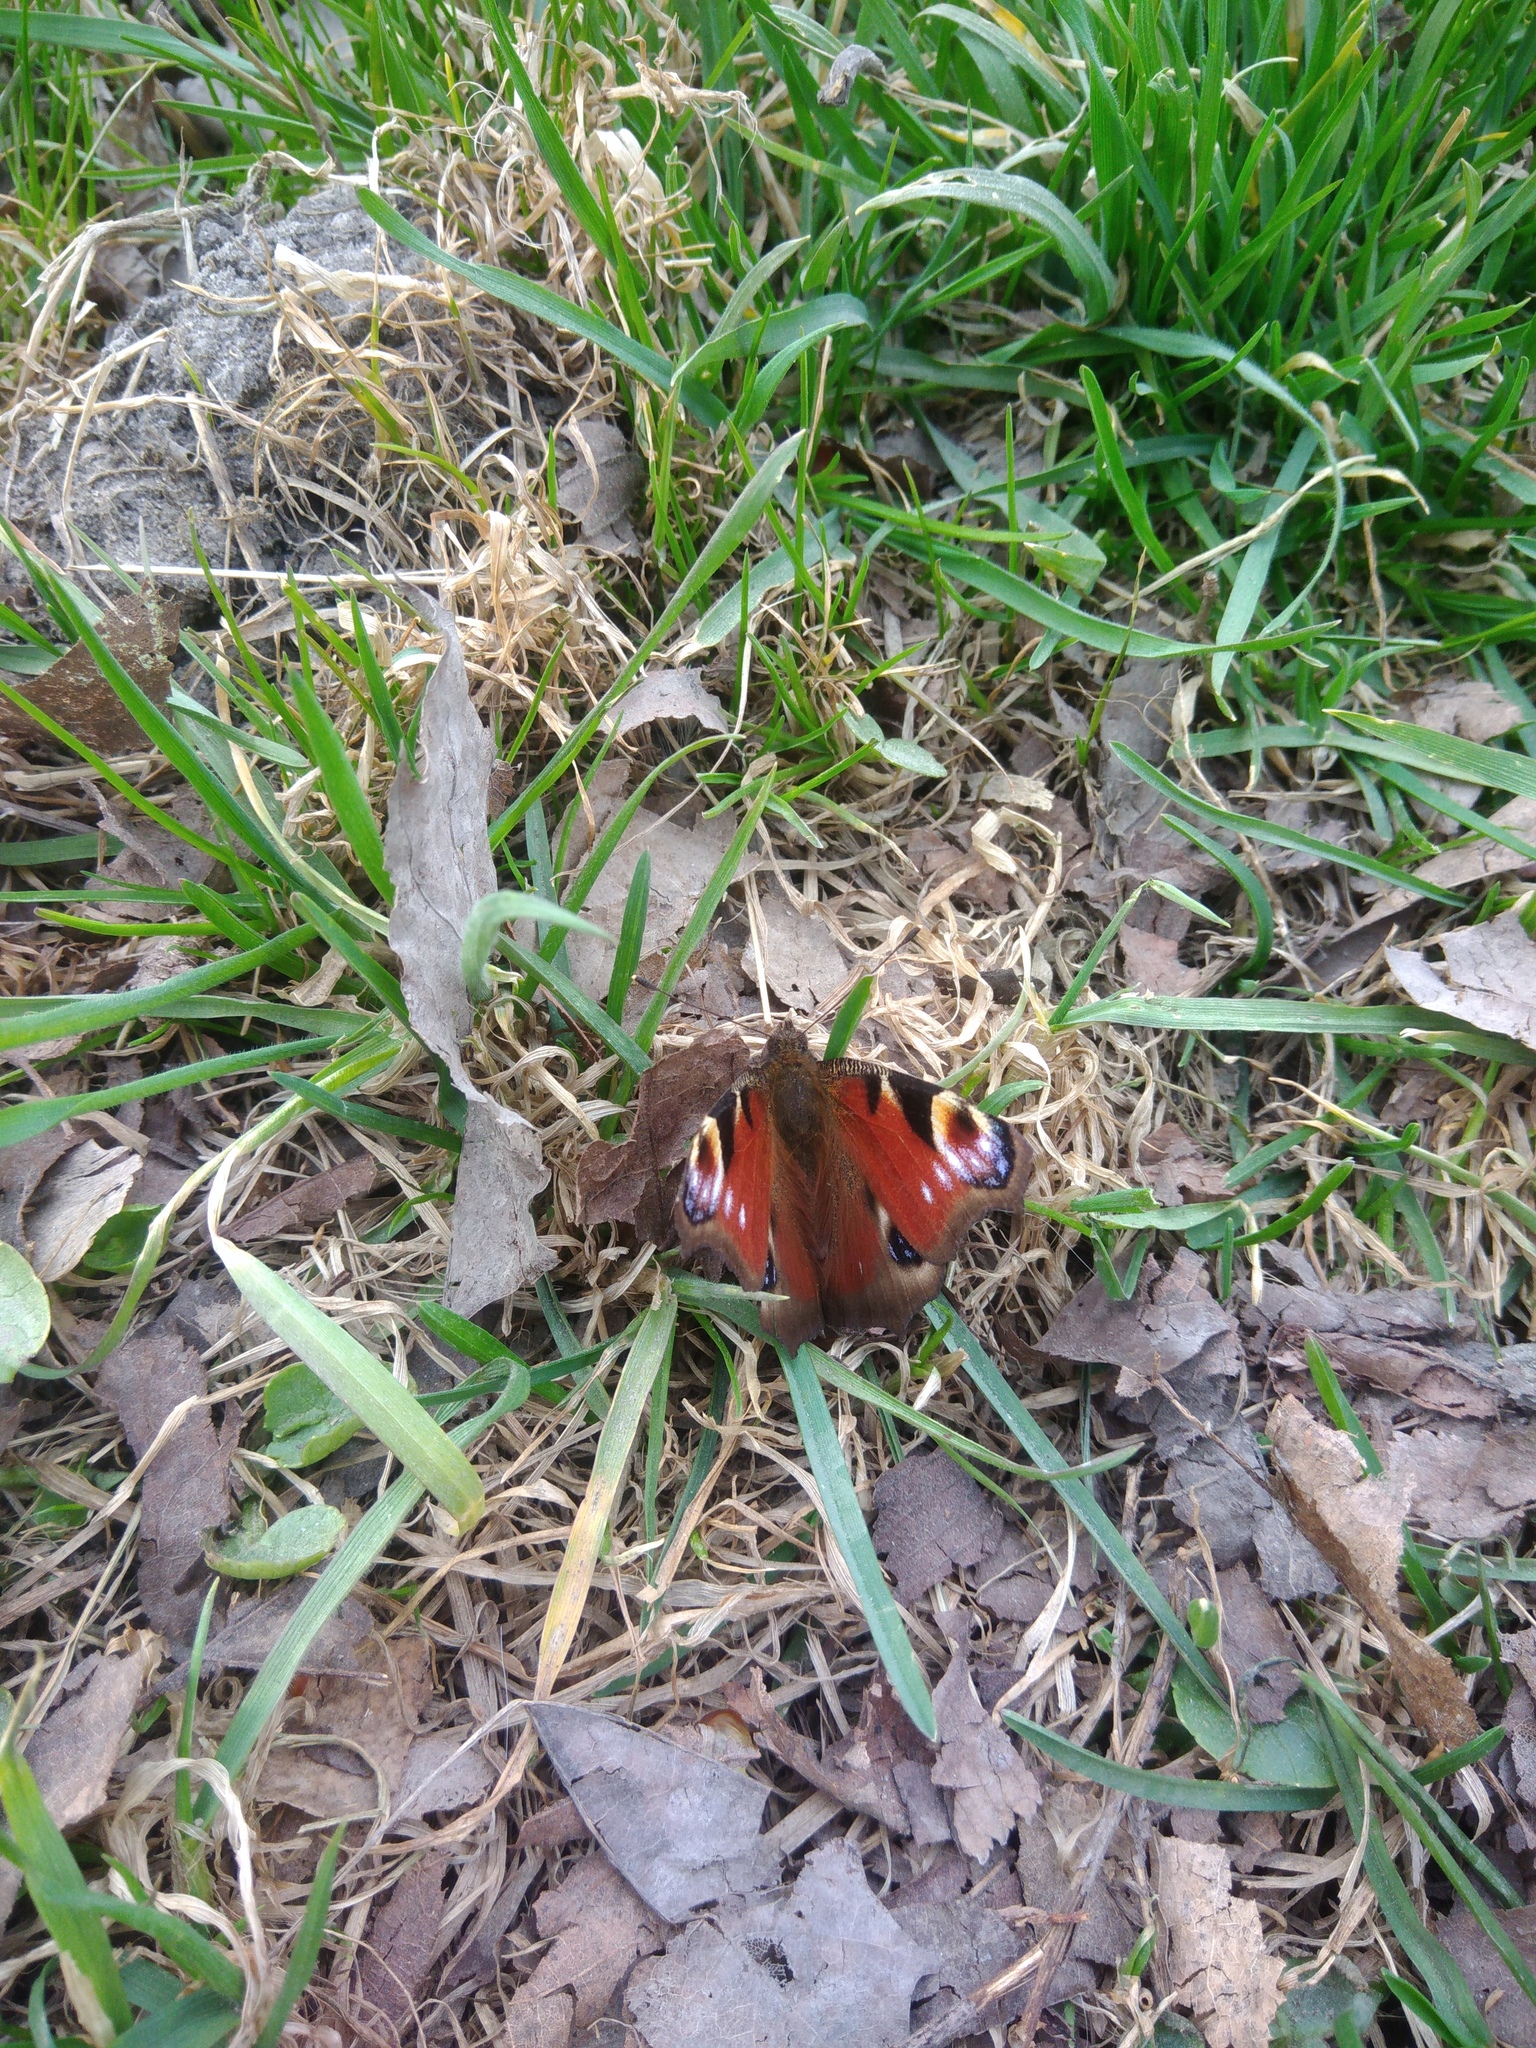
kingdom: Animalia
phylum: Arthropoda
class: Insecta
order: Lepidoptera
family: Nymphalidae
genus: Aglais
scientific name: Aglais io
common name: Peacock
